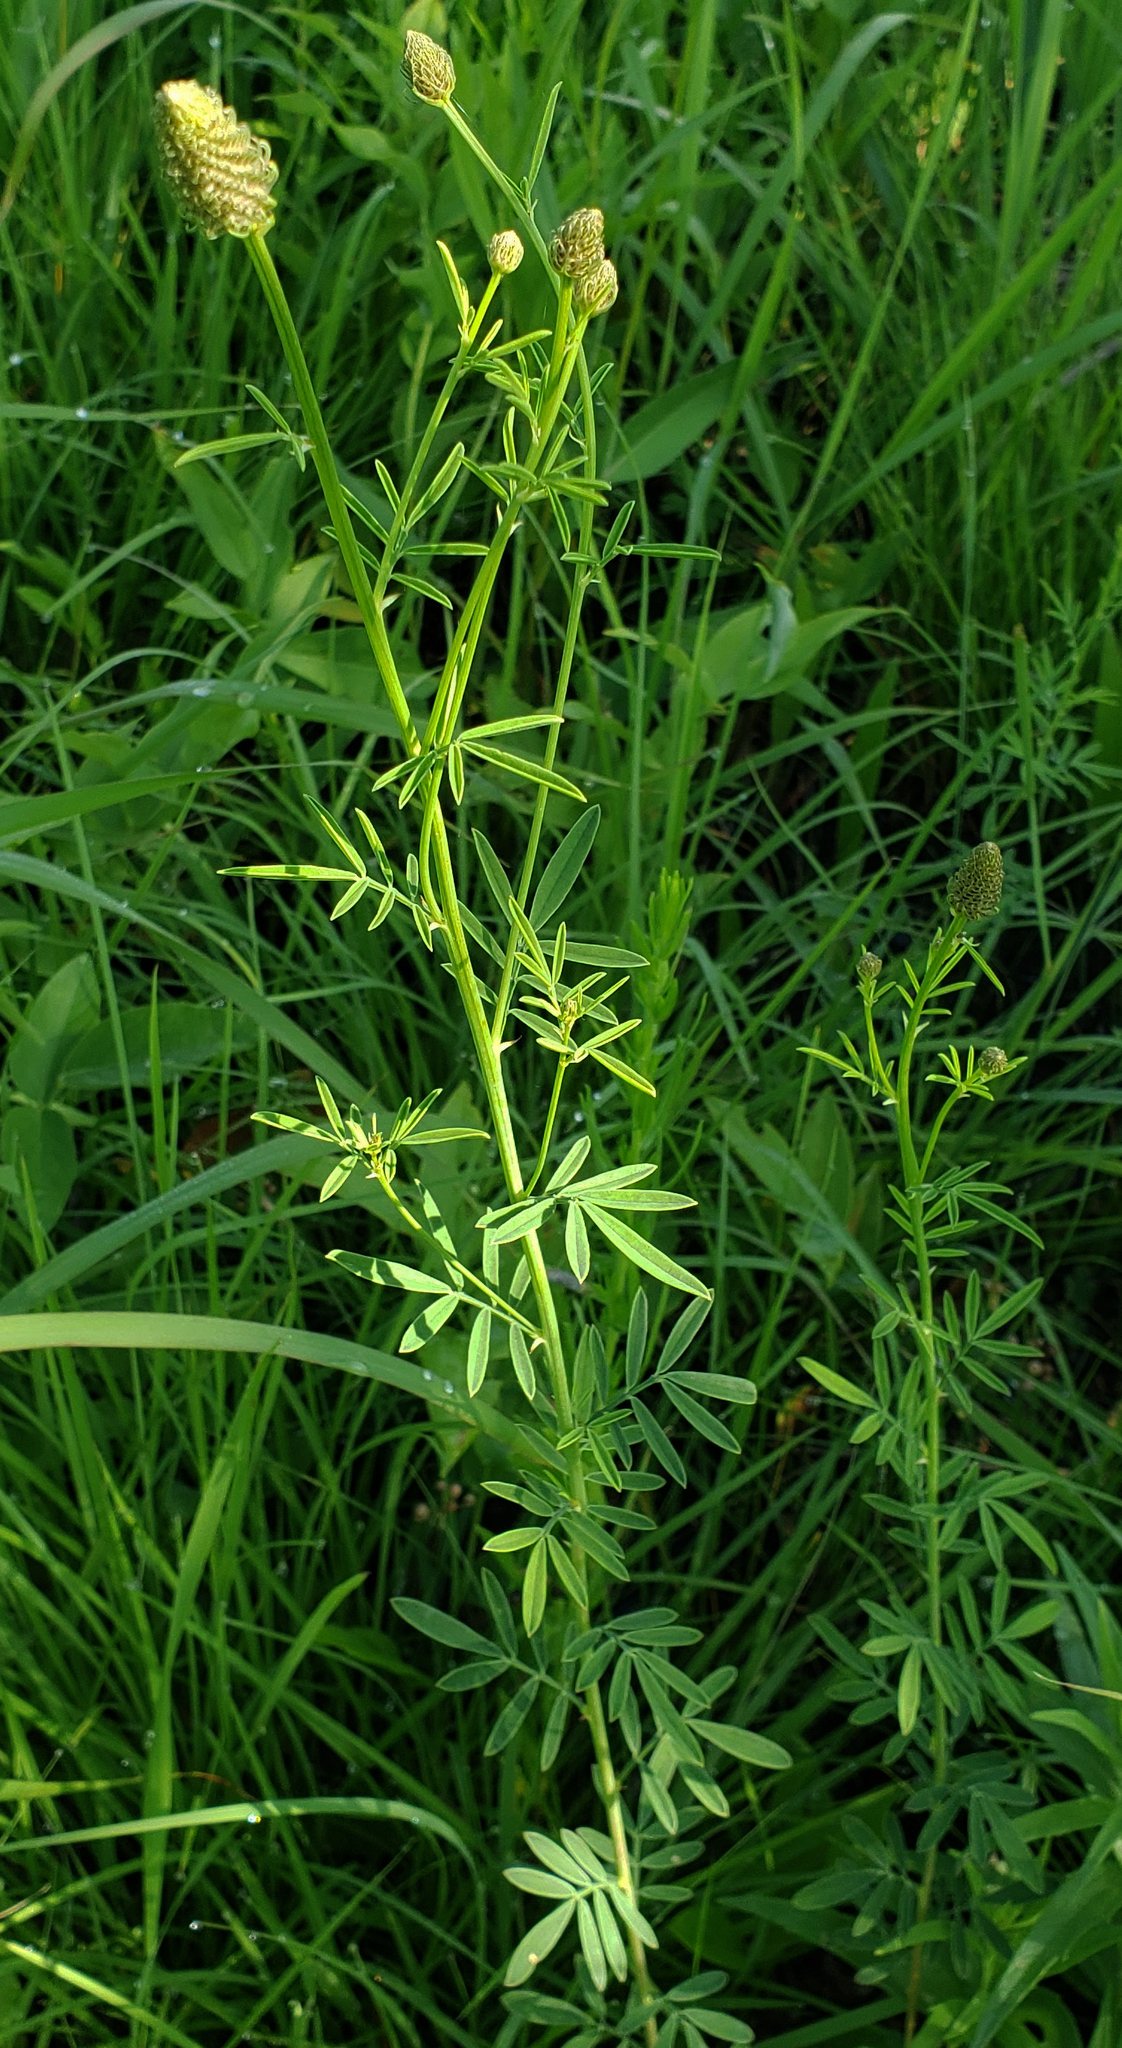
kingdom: Plantae
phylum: Tracheophyta
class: Magnoliopsida
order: Fabales
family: Fabaceae
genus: Dalea
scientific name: Dalea candida
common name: White prairie-clover
